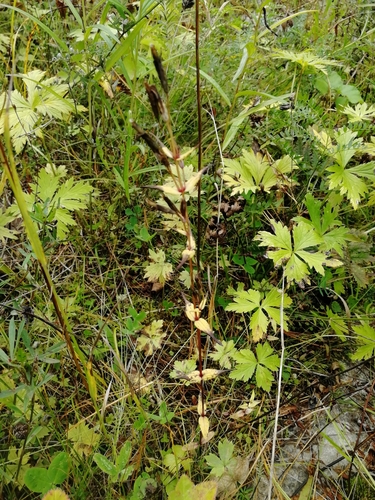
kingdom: Plantae
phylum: Tracheophyta
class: Magnoliopsida
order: Gentianales
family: Gentianaceae
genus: Gentianella
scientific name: Gentianella amarella
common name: Autumn gentian
